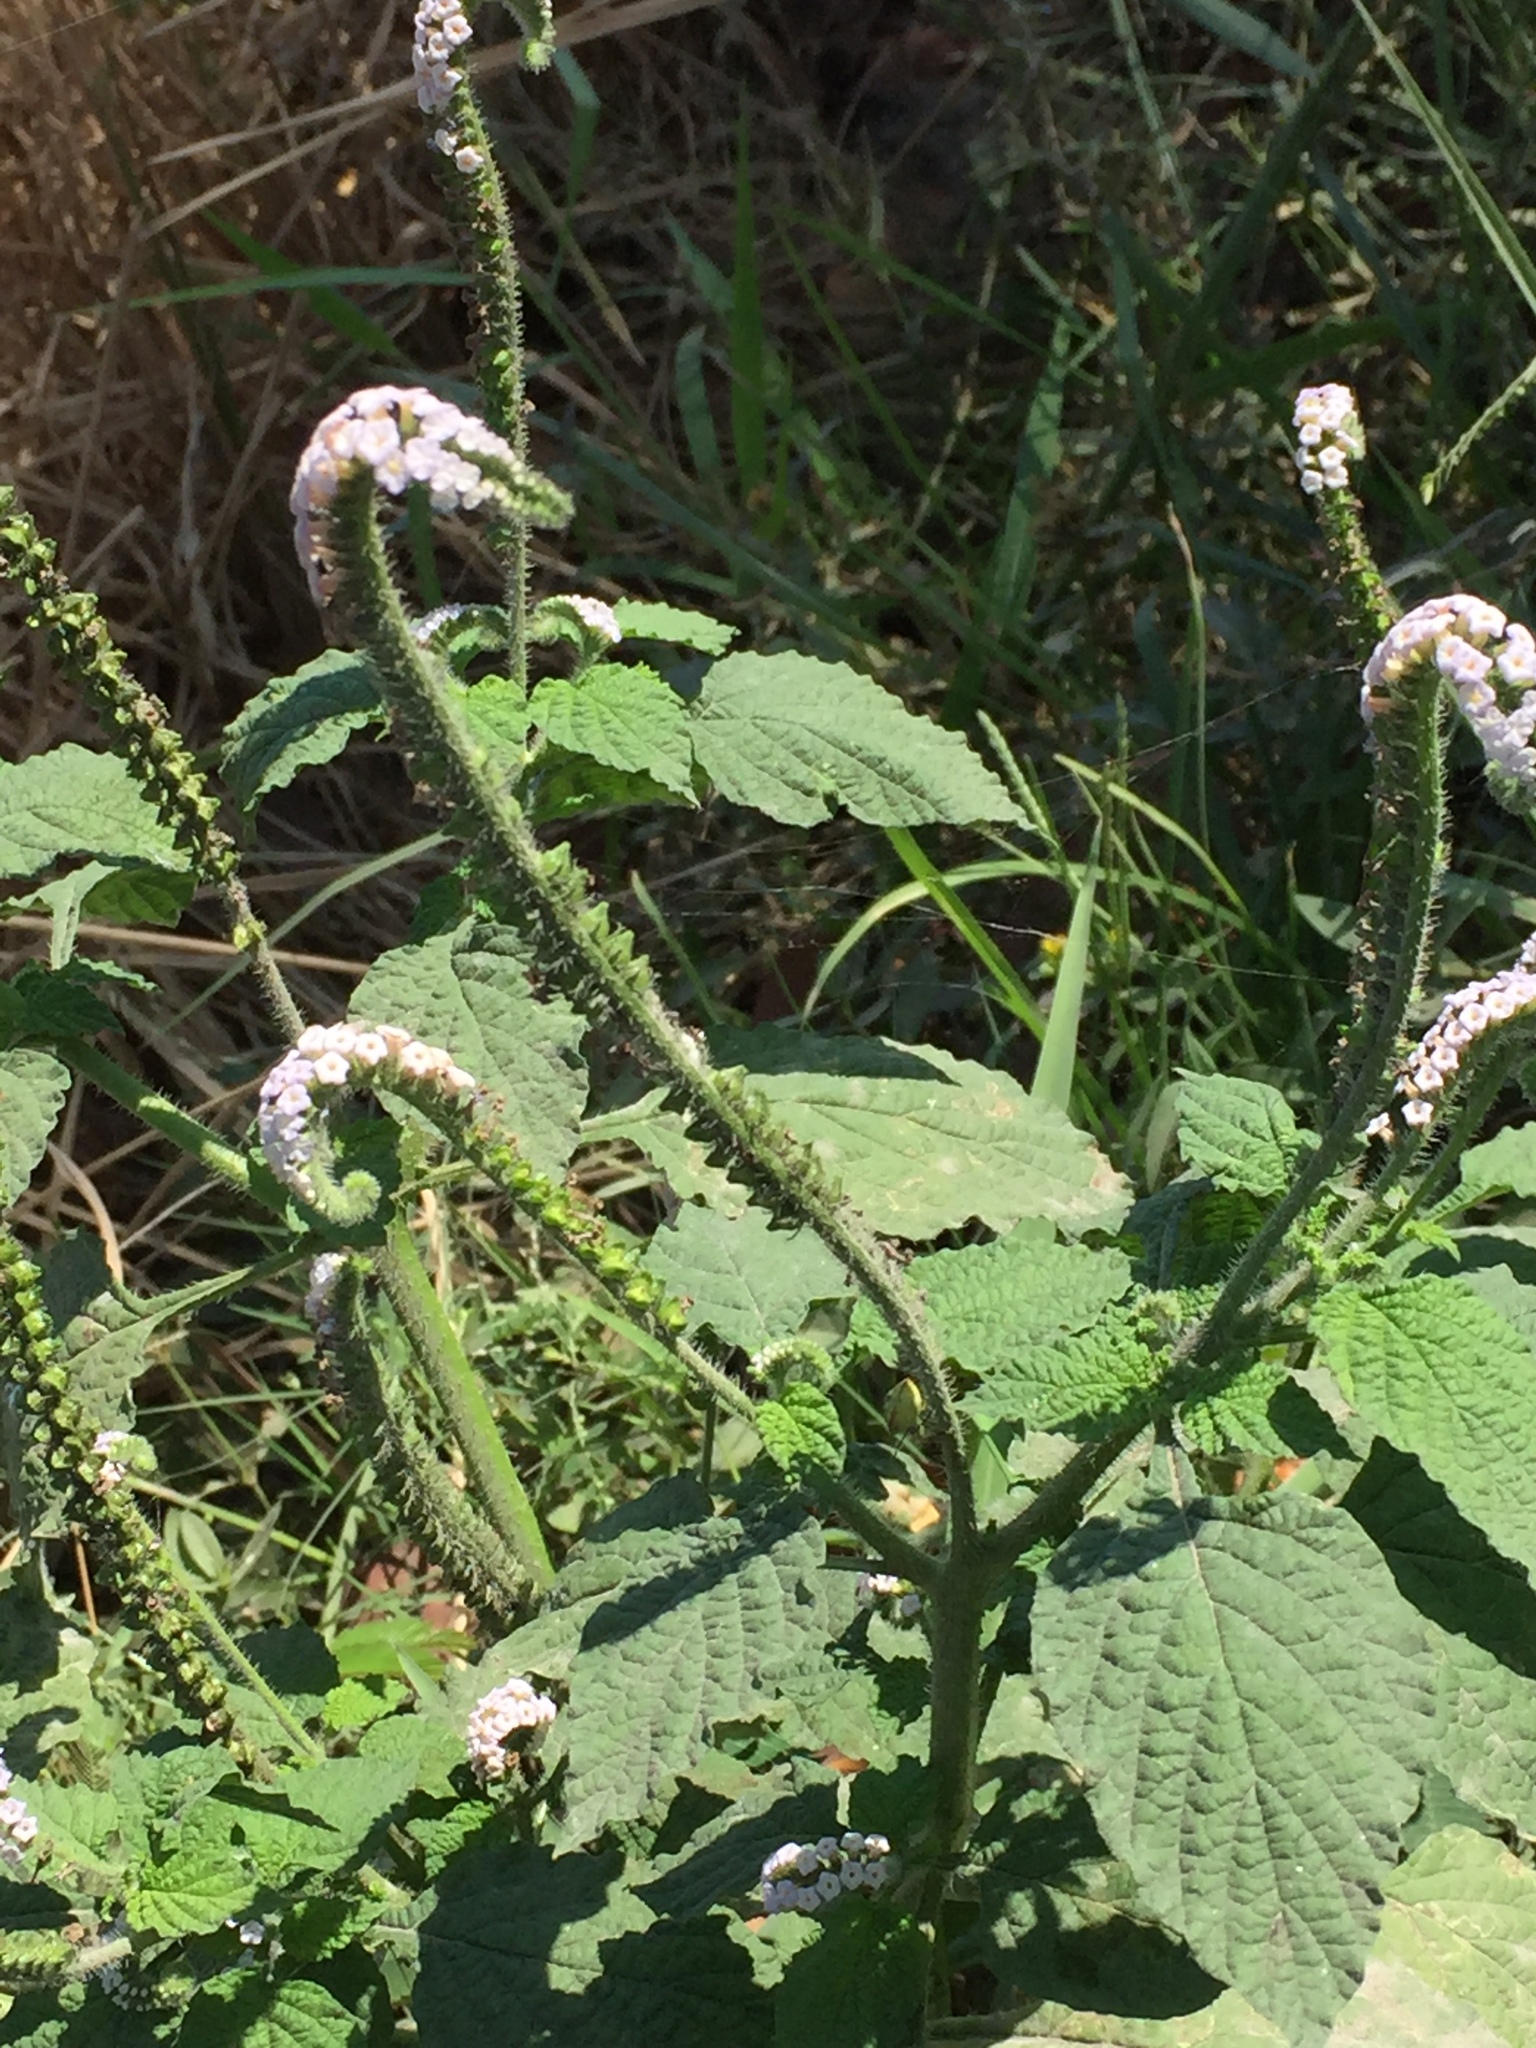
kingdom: Plantae
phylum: Tracheophyta
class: Magnoliopsida
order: Boraginales
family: Heliotropiaceae
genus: Heliotropium
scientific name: Heliotropium indicum
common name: Indian heliotrope
